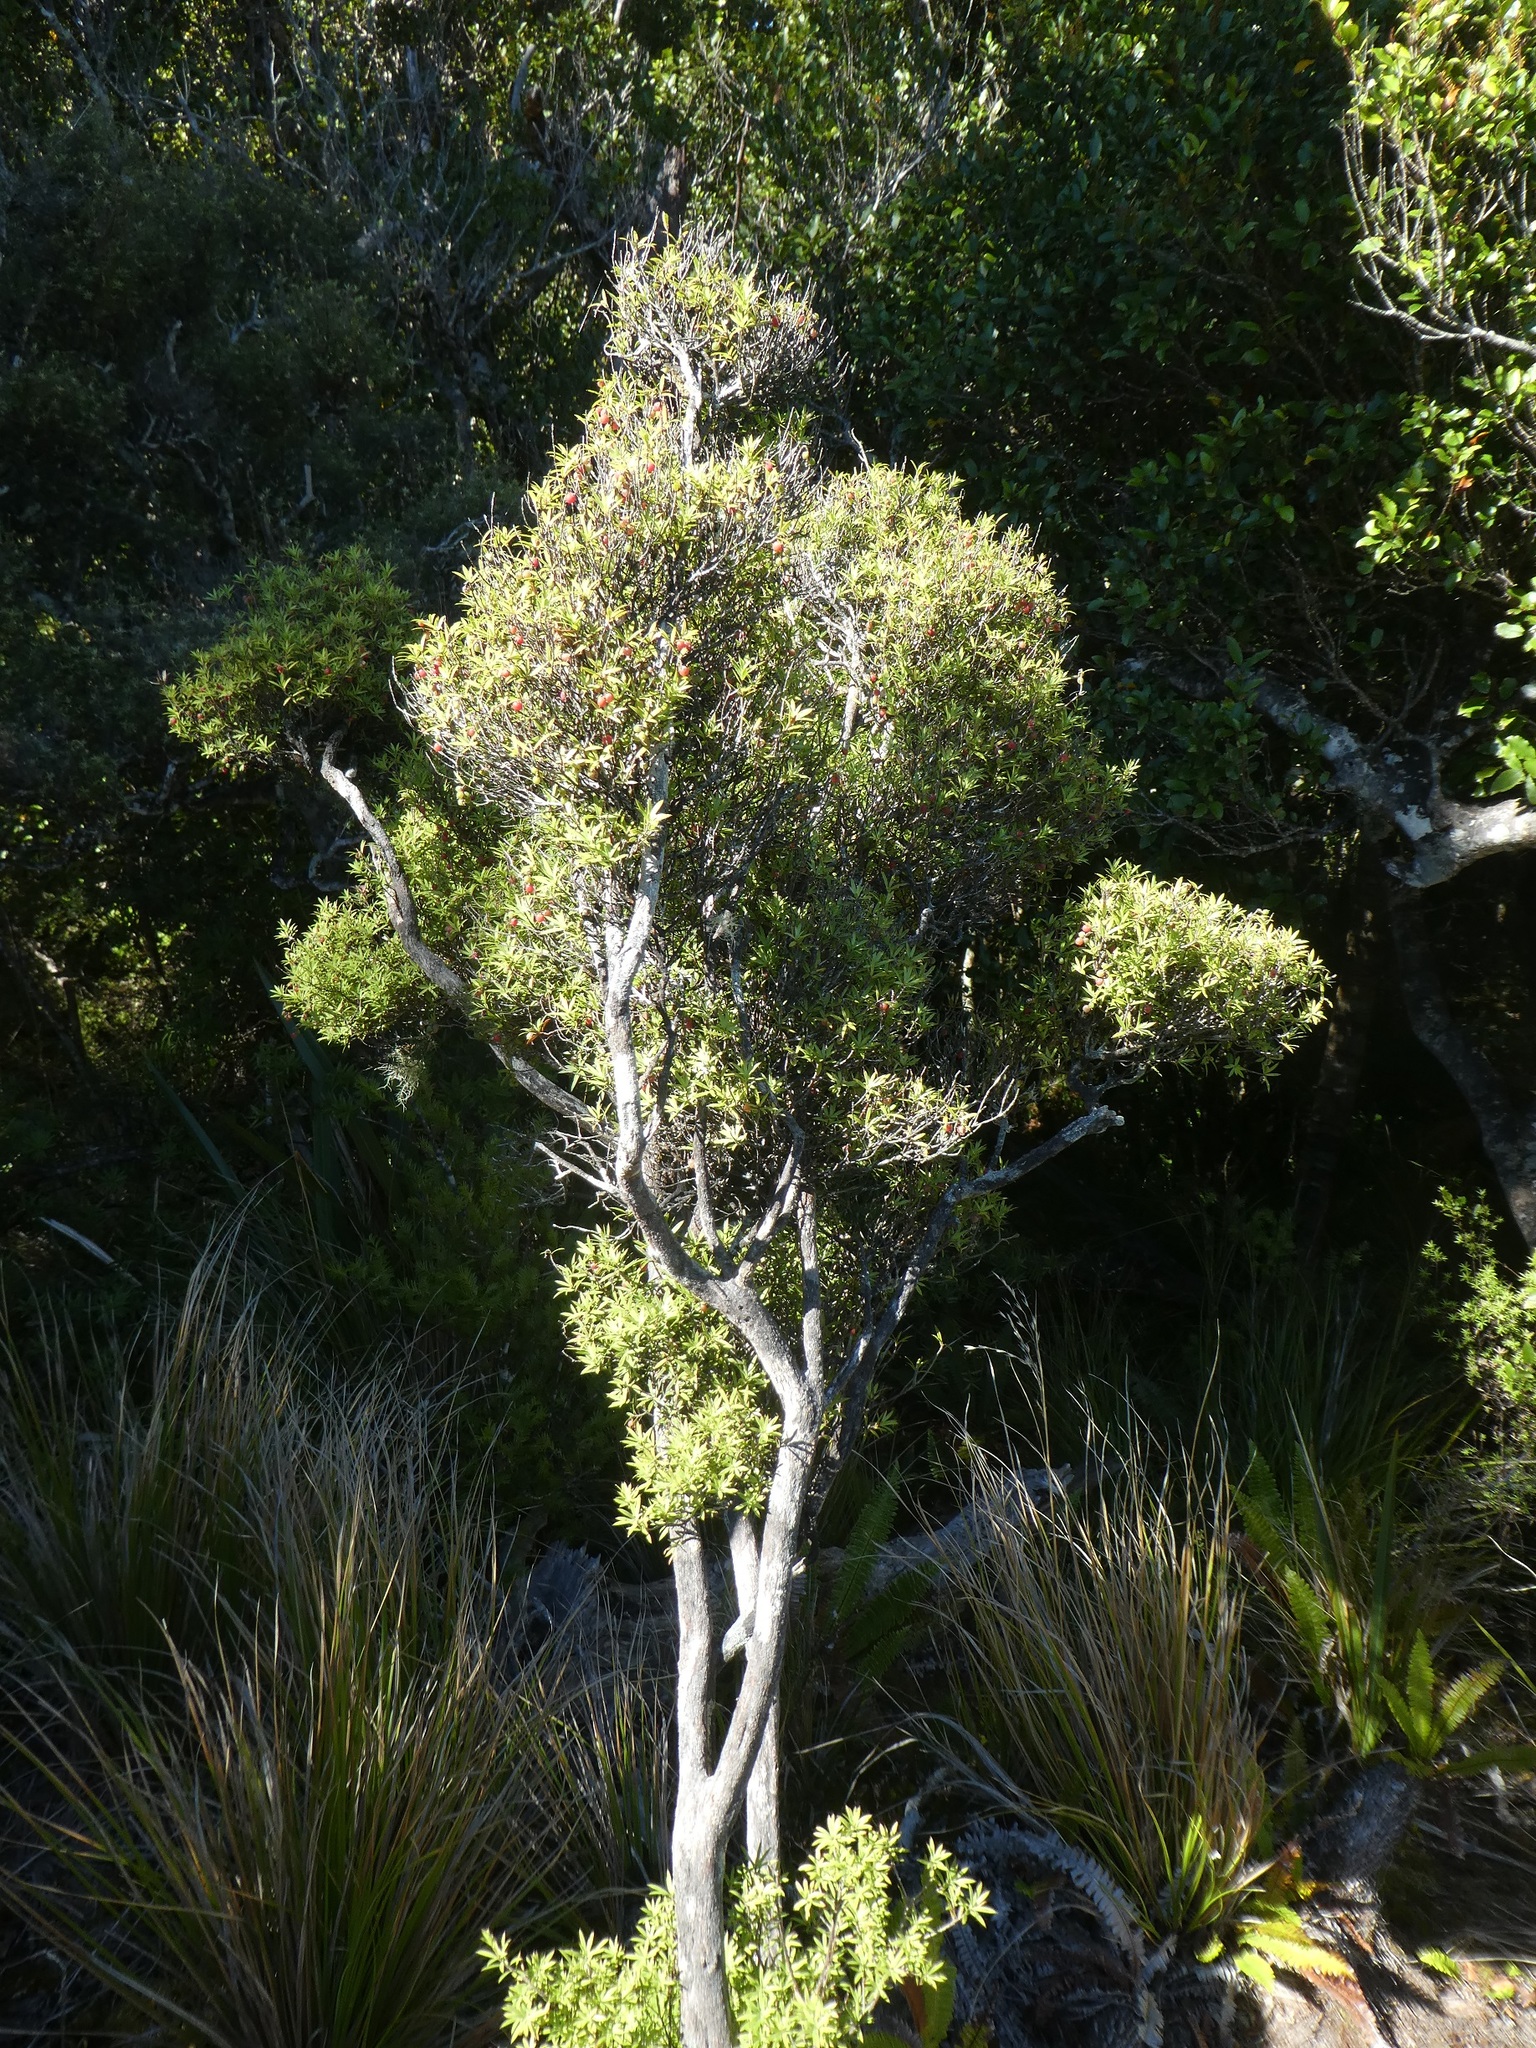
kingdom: Plantae
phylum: Tracheophyta
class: Magnoliopsida
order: Ericales
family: Ericaceae
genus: Leucopogon
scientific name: Leucopogon fasciculatus
